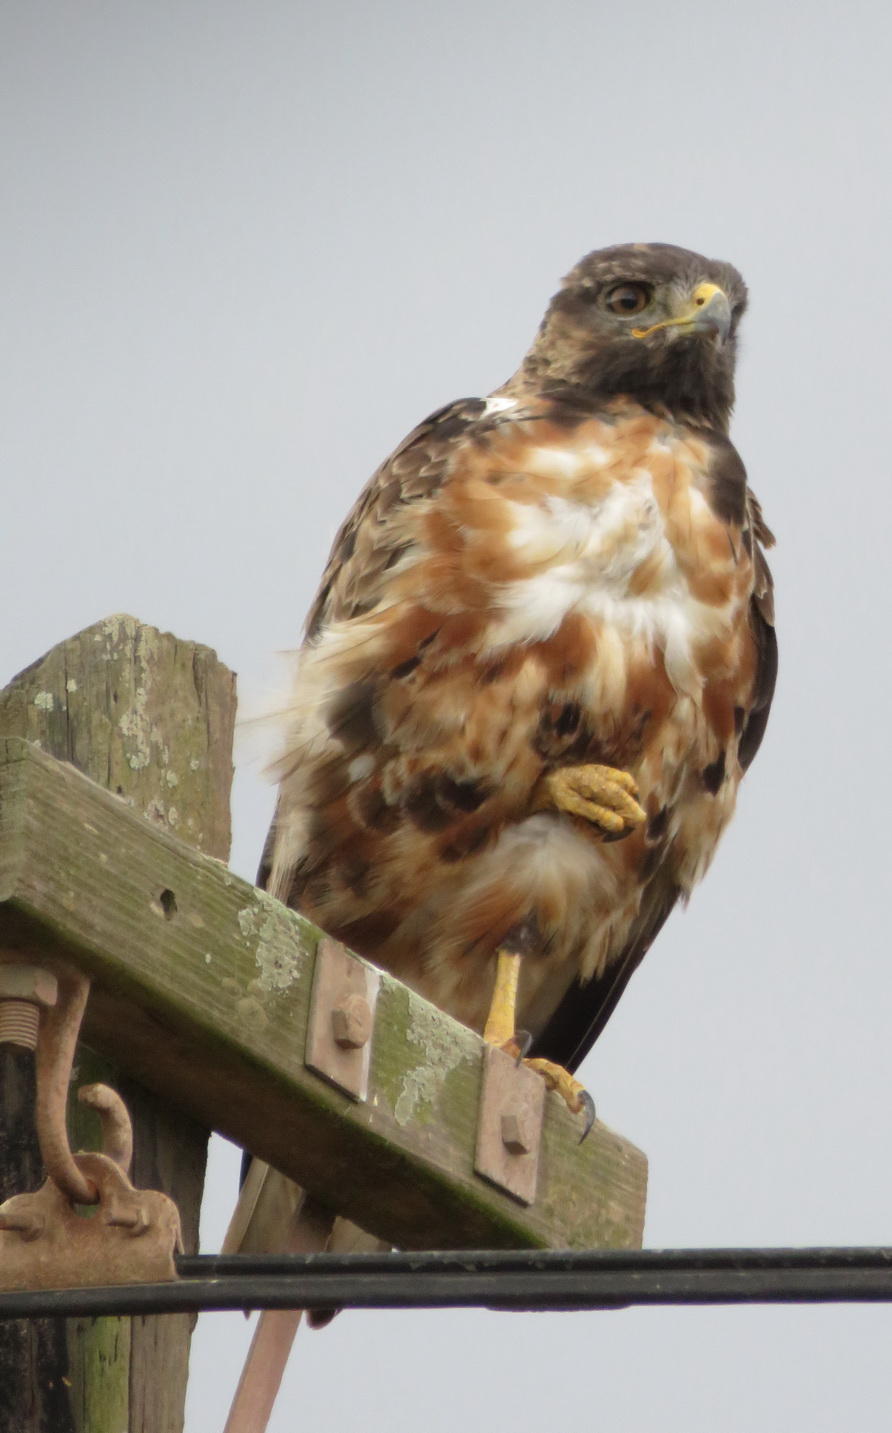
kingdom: Animalia
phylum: Chordata
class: Aves
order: Accipitriformes
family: Accipitridae
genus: Buteo
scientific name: Buteo rufofuscus
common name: Jackal buzzard
